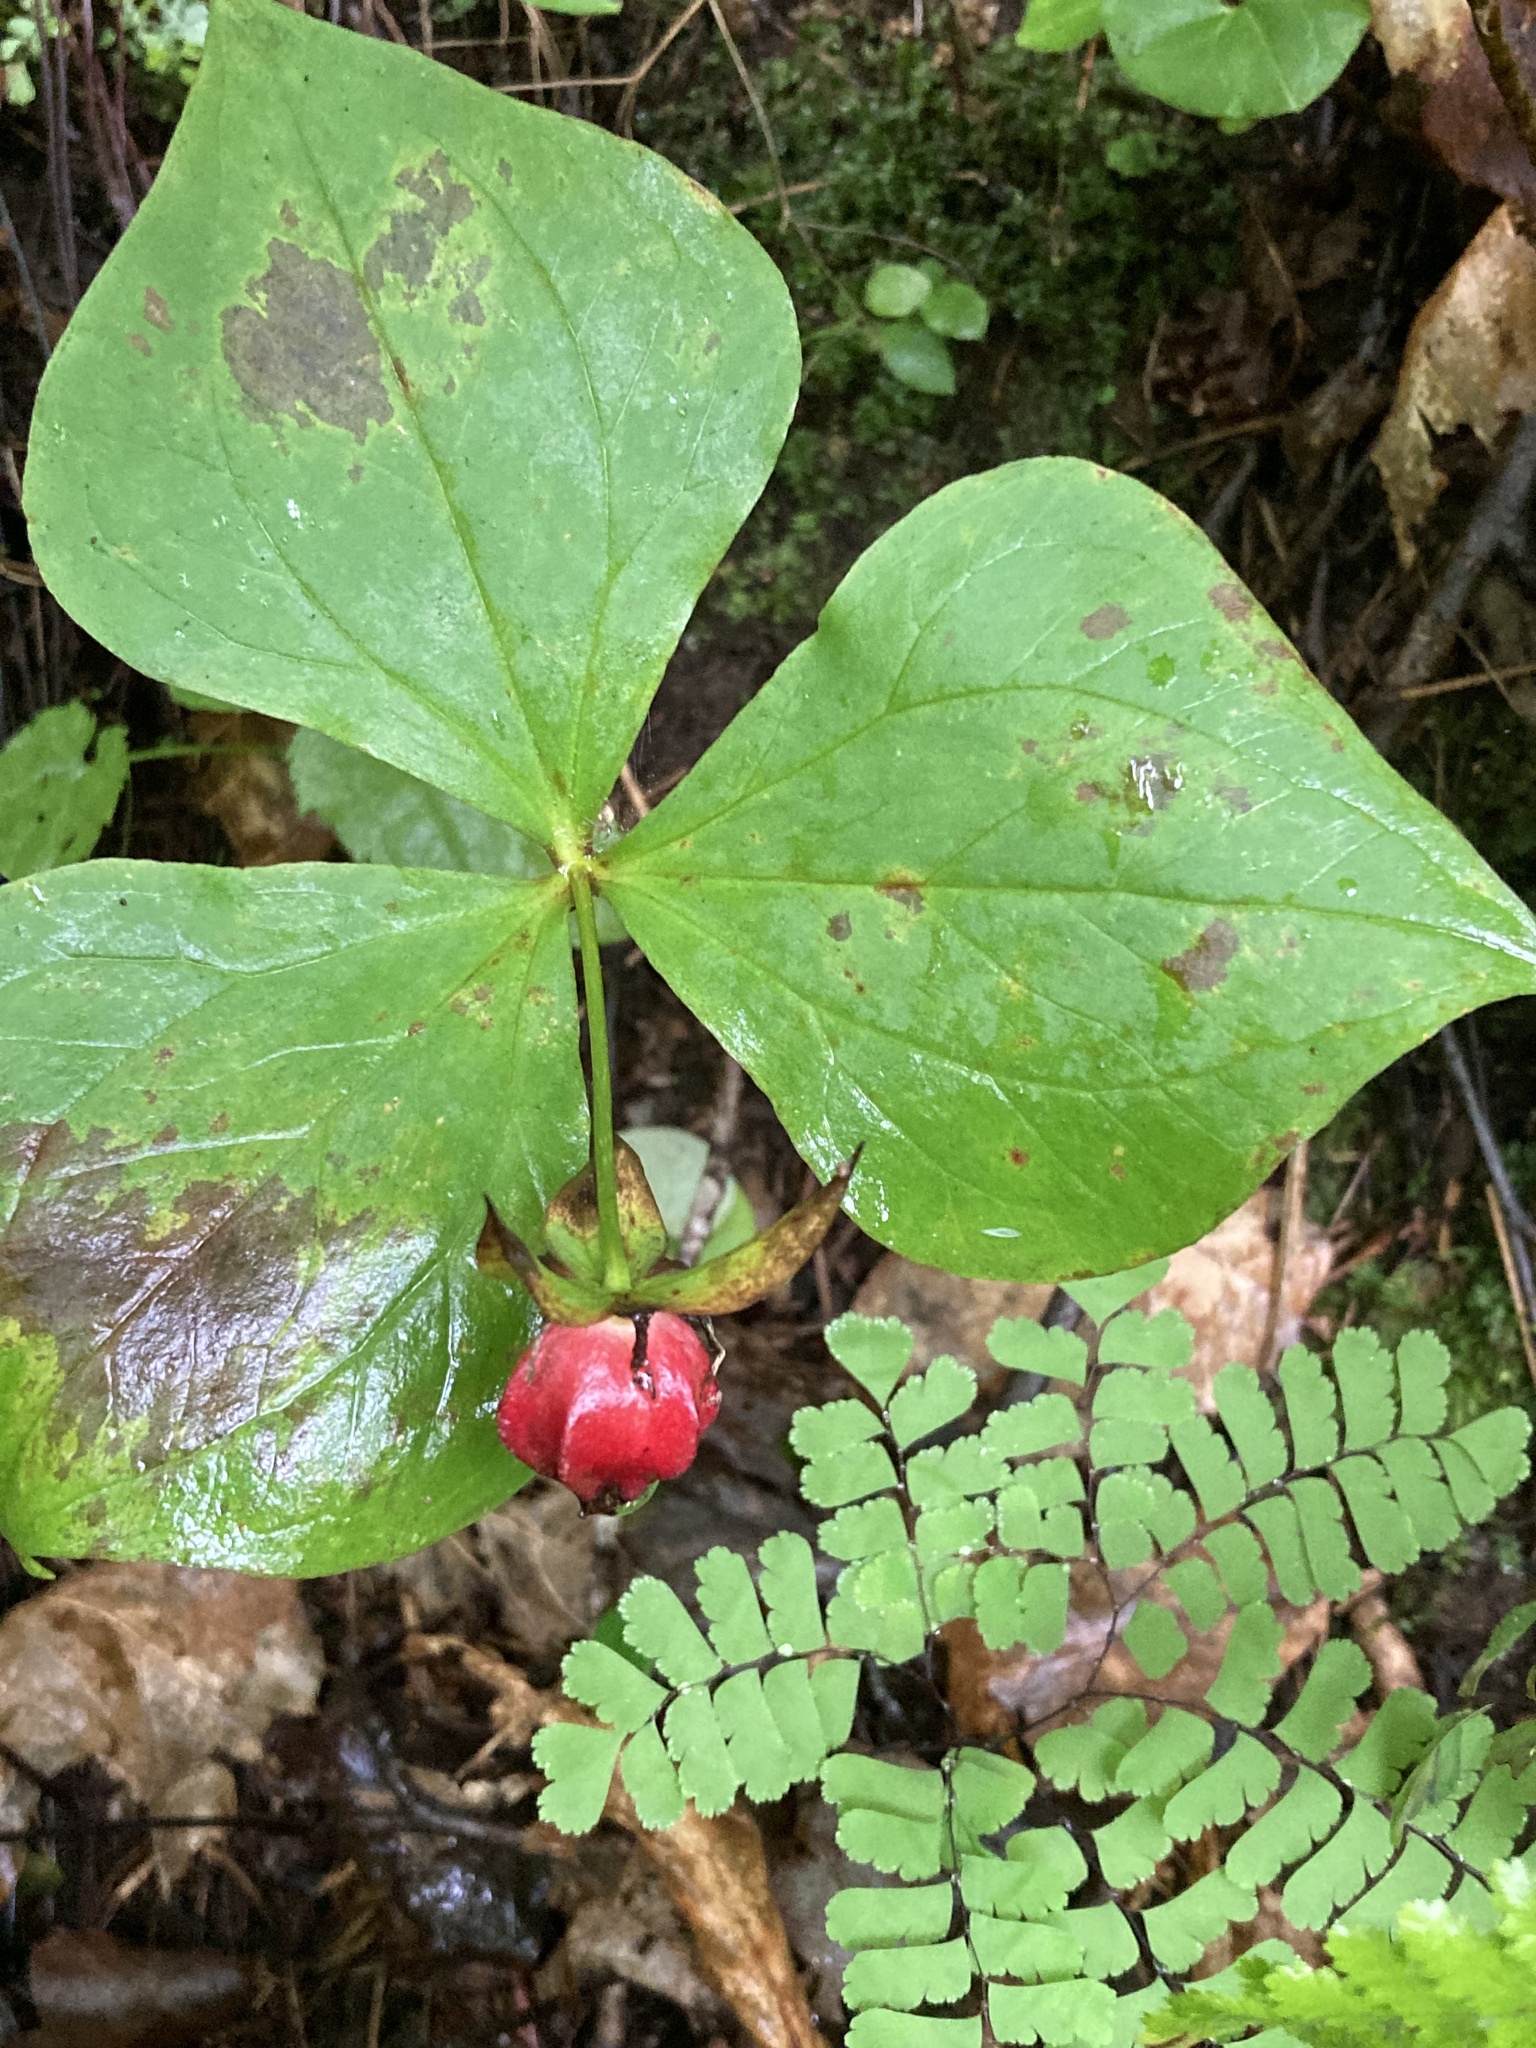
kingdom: Plantae
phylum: Tracheophyta
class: Liliopsida
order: Liliales
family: Melanthiaceae
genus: Trillium
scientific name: Trillium erectum
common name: Purple trillium
